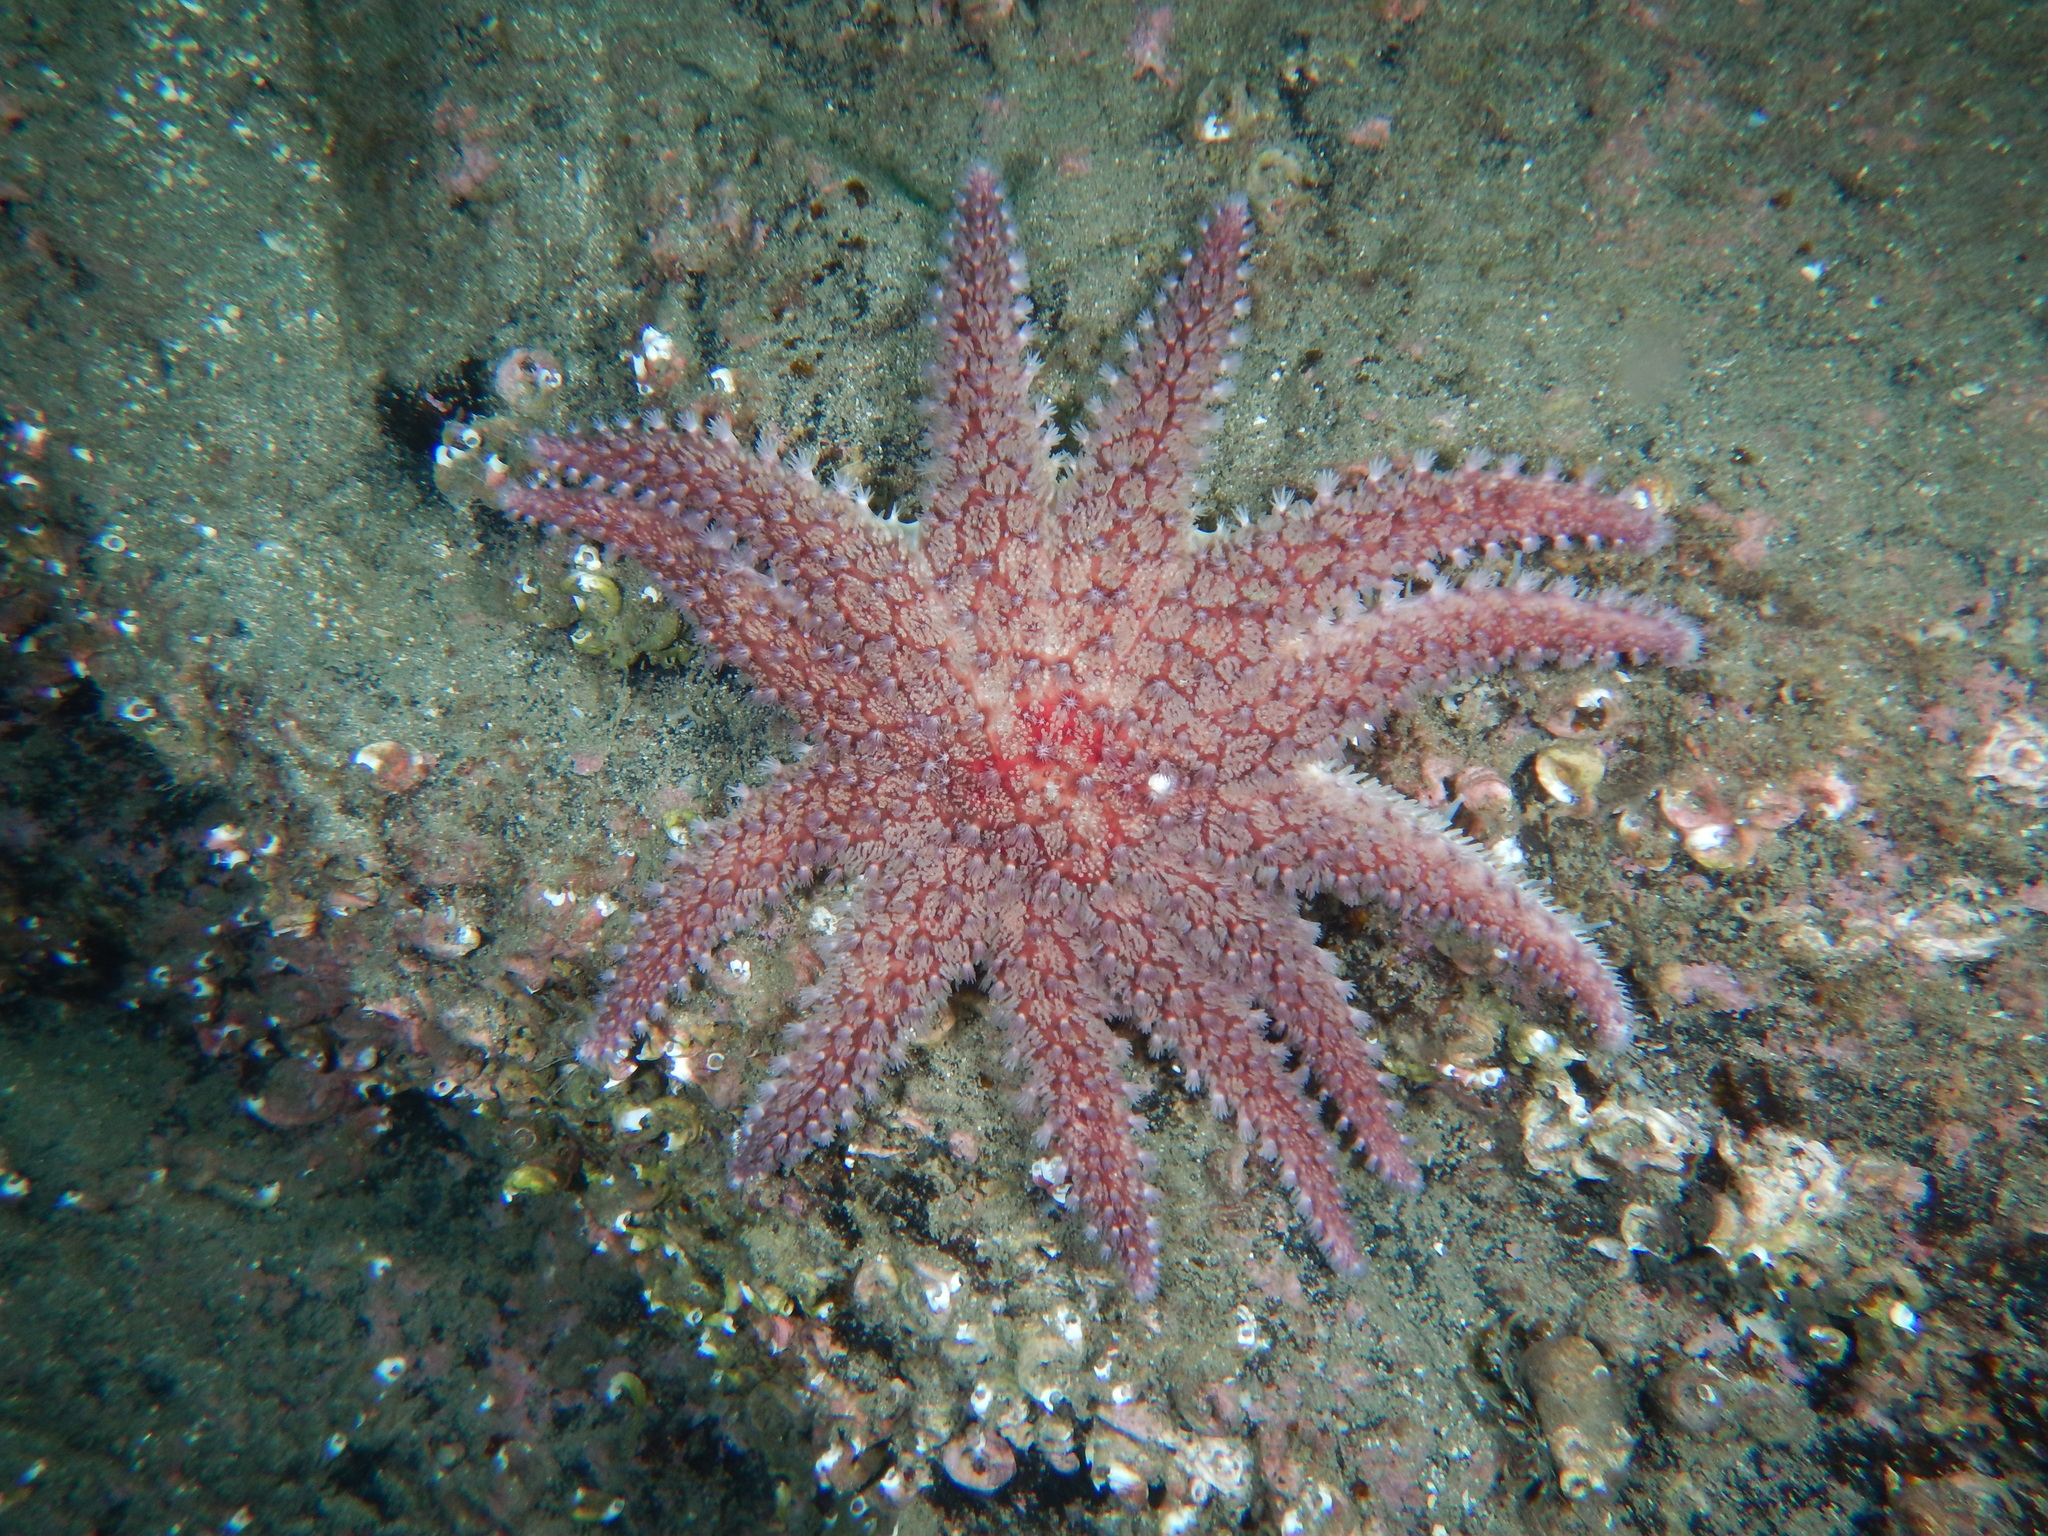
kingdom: Animalia
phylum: Echinodermata
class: Asteroidea
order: Valvatida
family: Solasteridae
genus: Crossaster
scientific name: Crossaster papposus
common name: Common sun star
